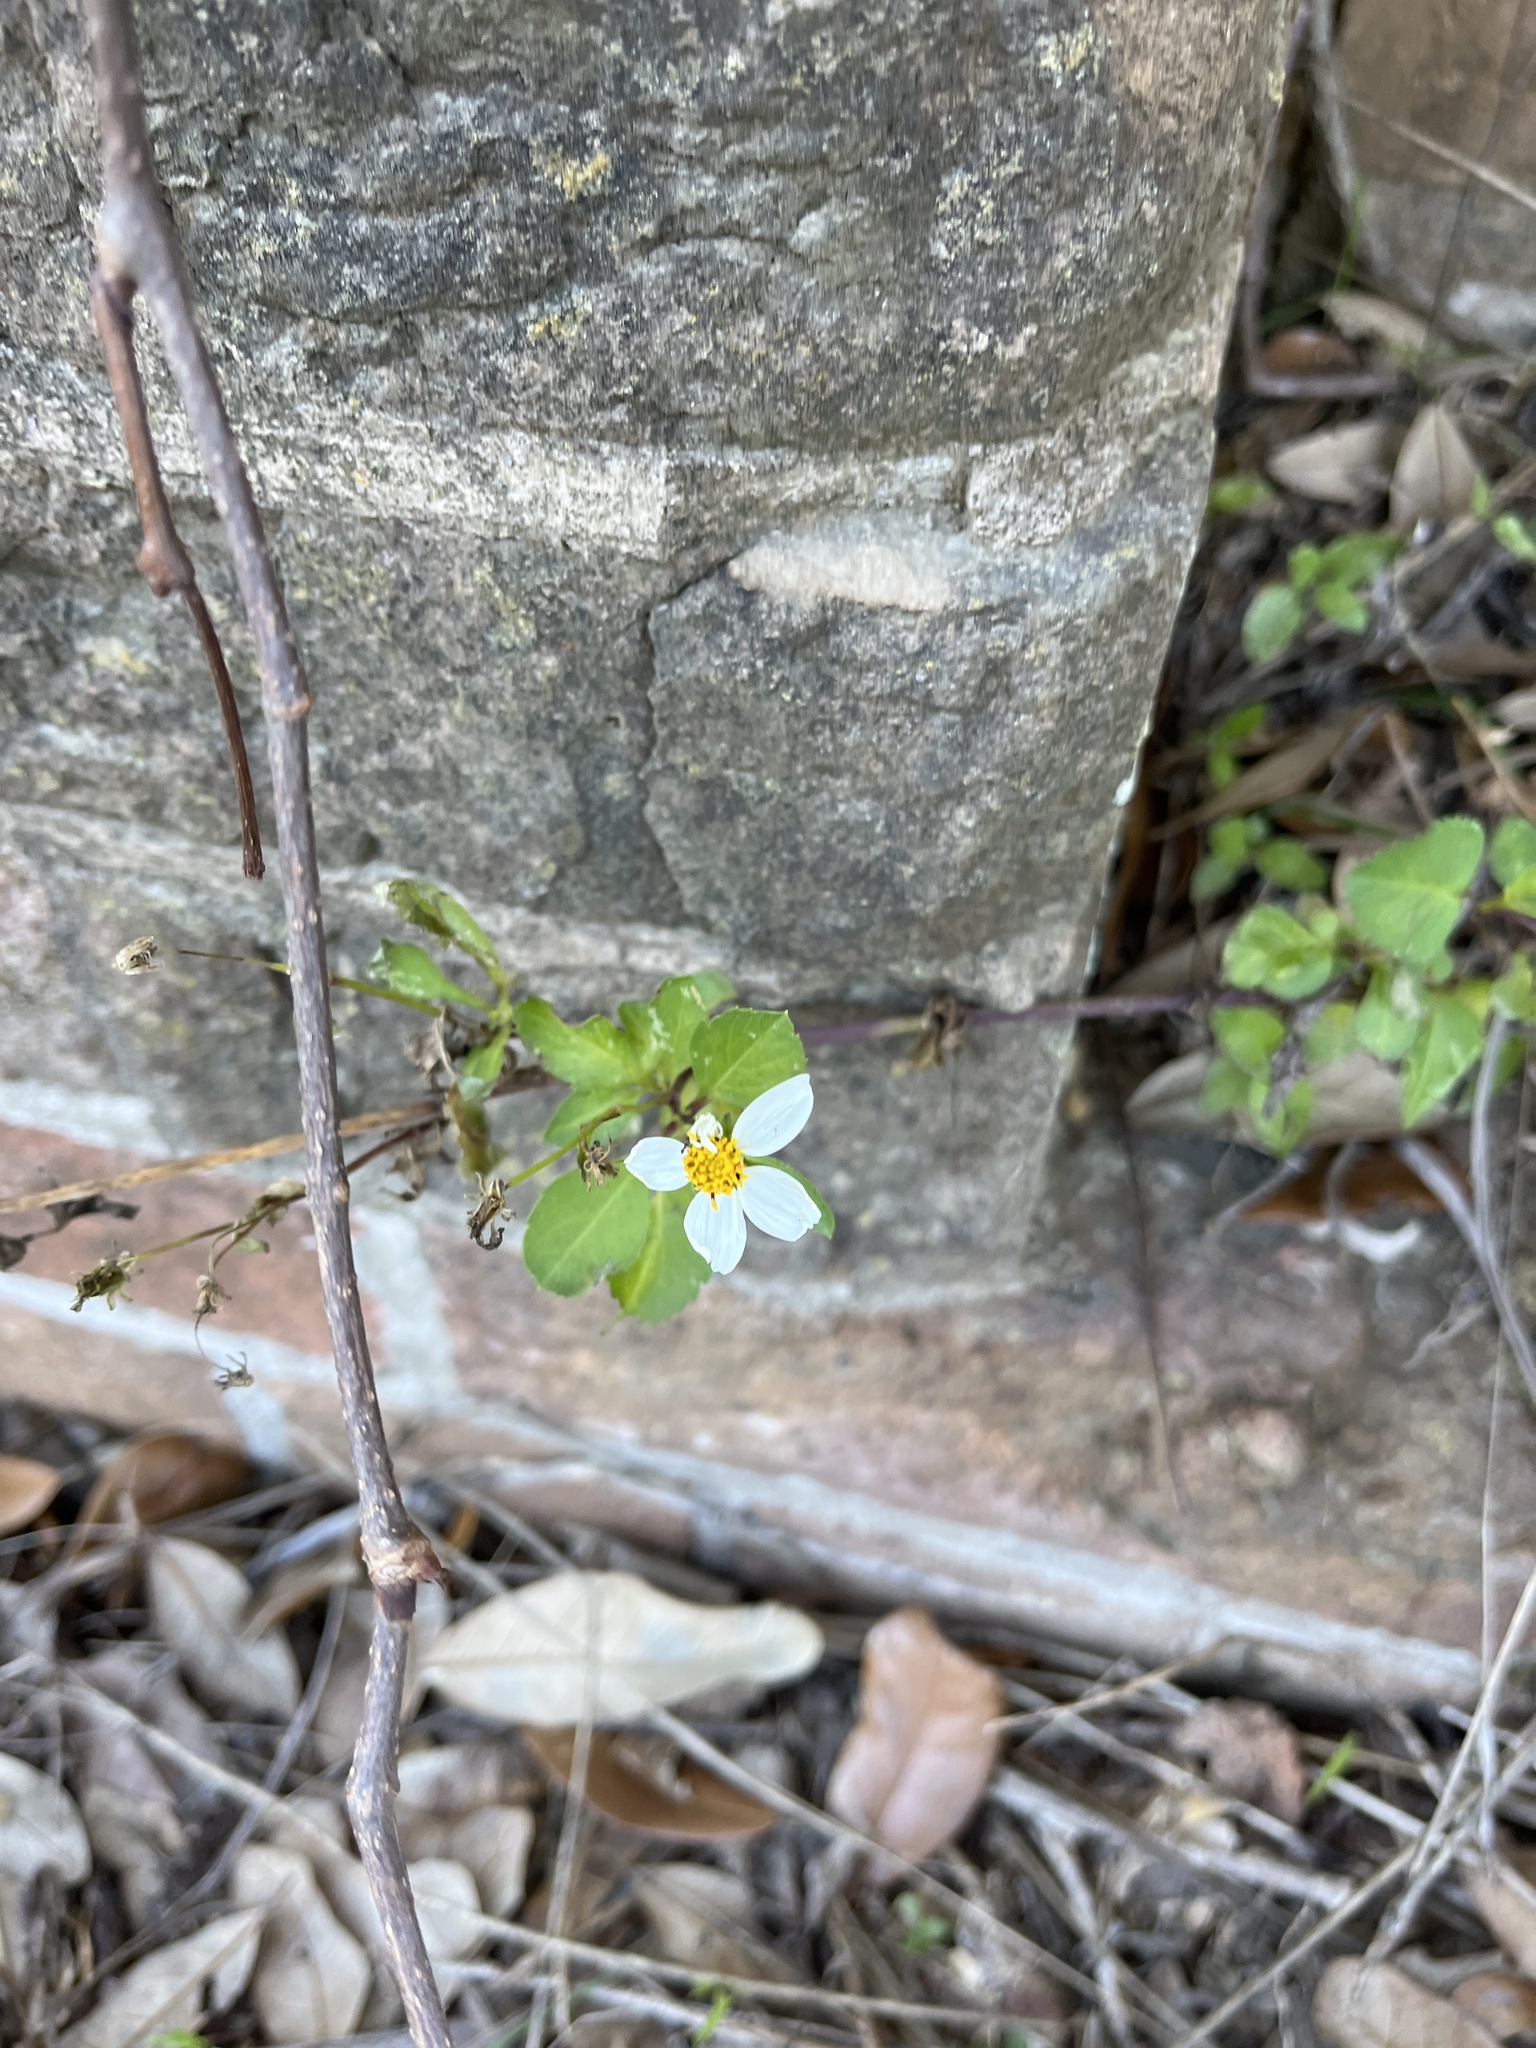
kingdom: Plantae
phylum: Tracheophyta
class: Magnoliopsida
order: Asterales
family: Asteraceae
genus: Bidens
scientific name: Bidens alba
